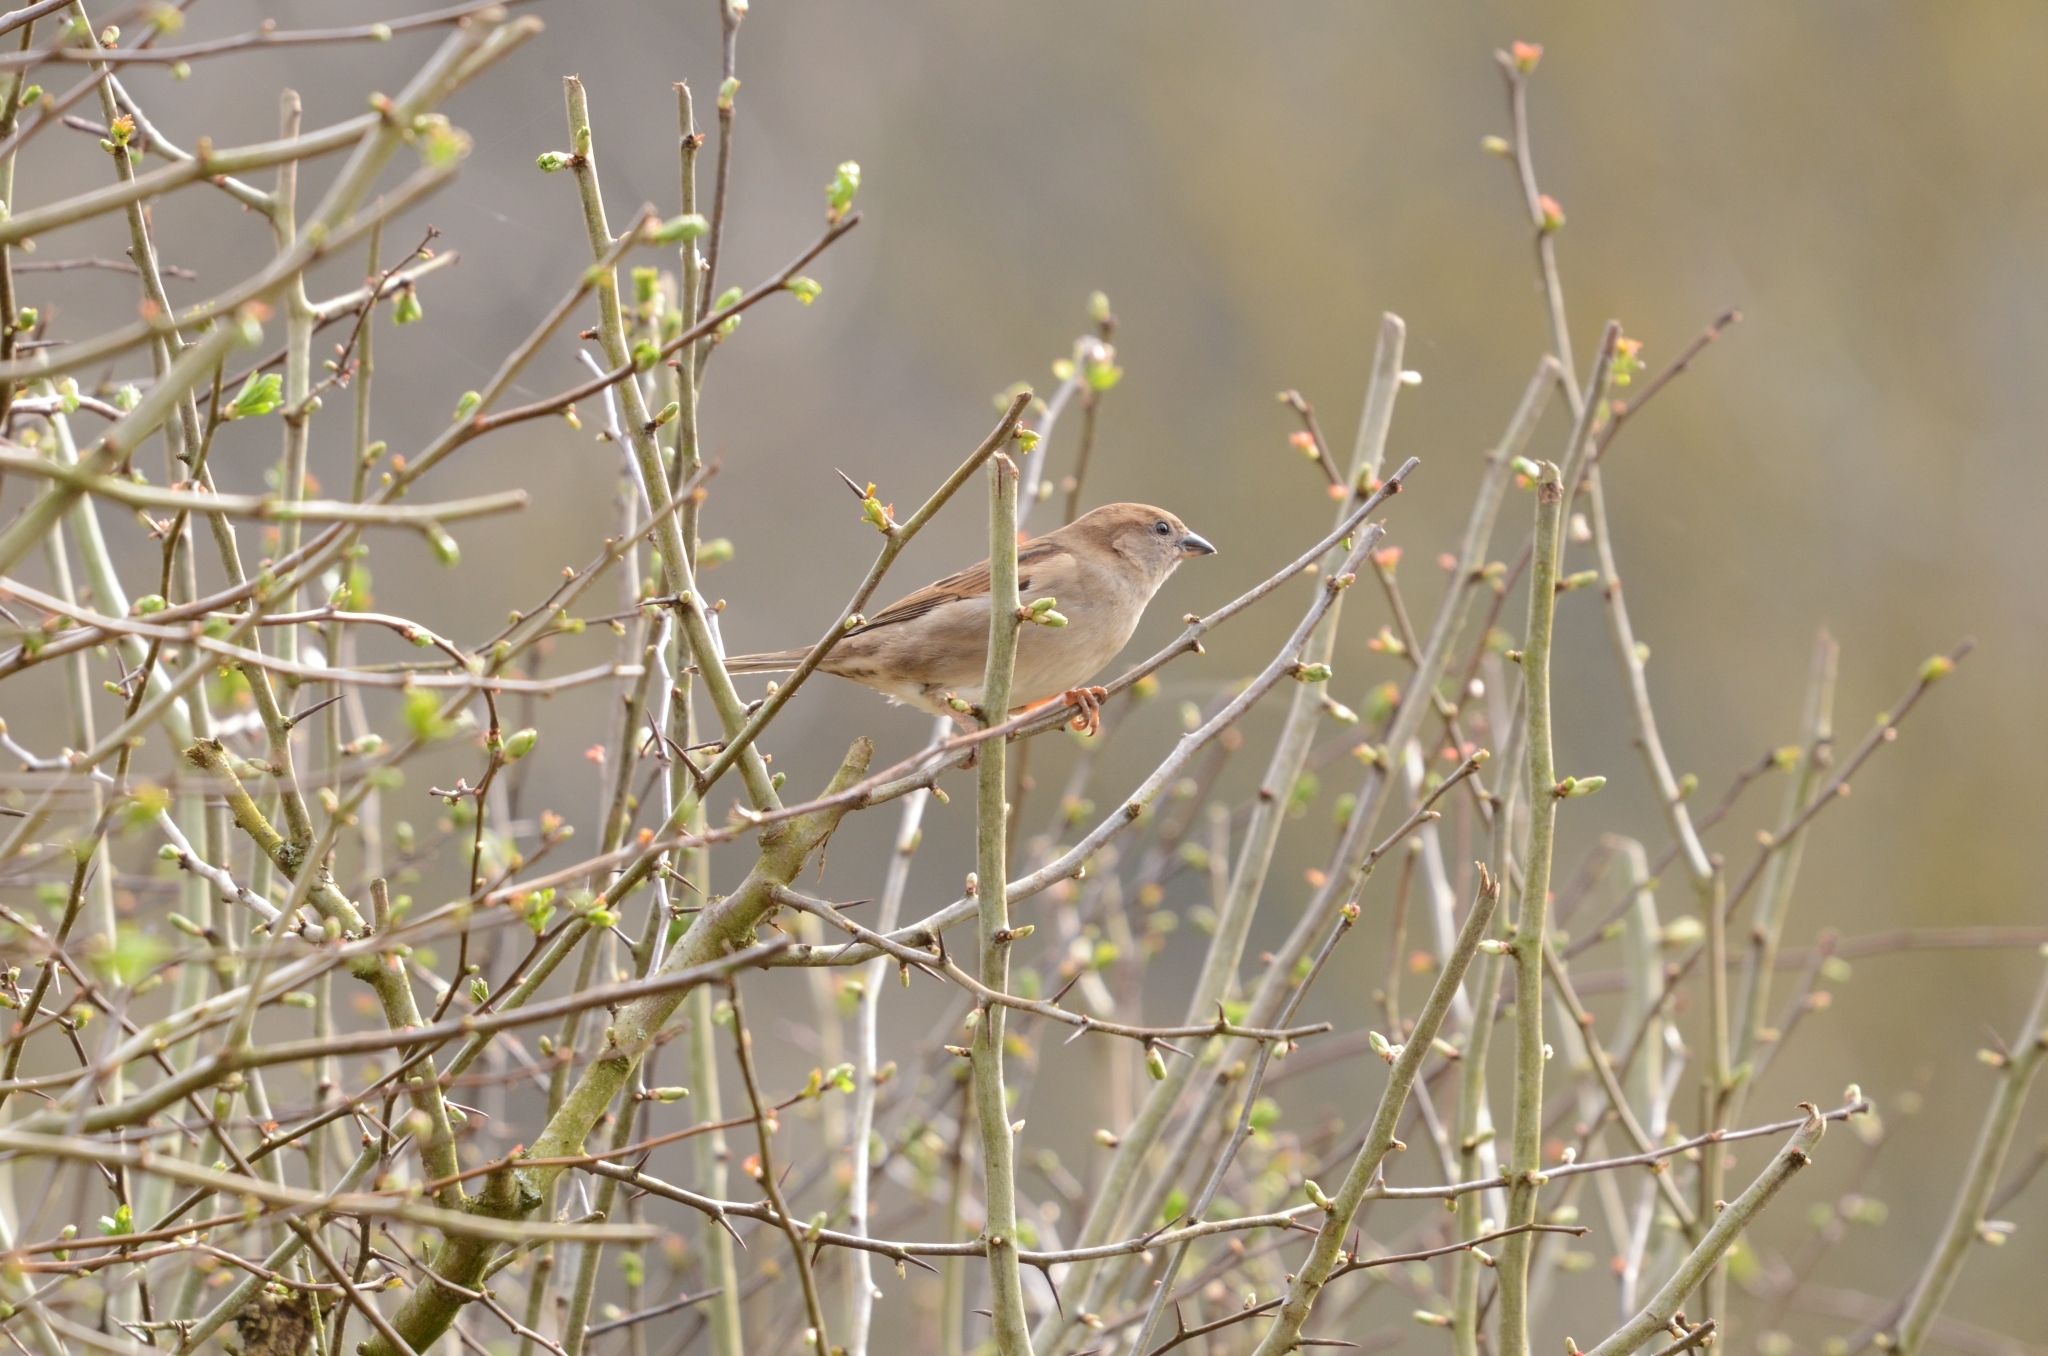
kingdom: Animalia
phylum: Chordata
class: Aves
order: Passeriformes
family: Passeridae
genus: Passer
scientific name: Passer domesticus
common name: House sparrow
